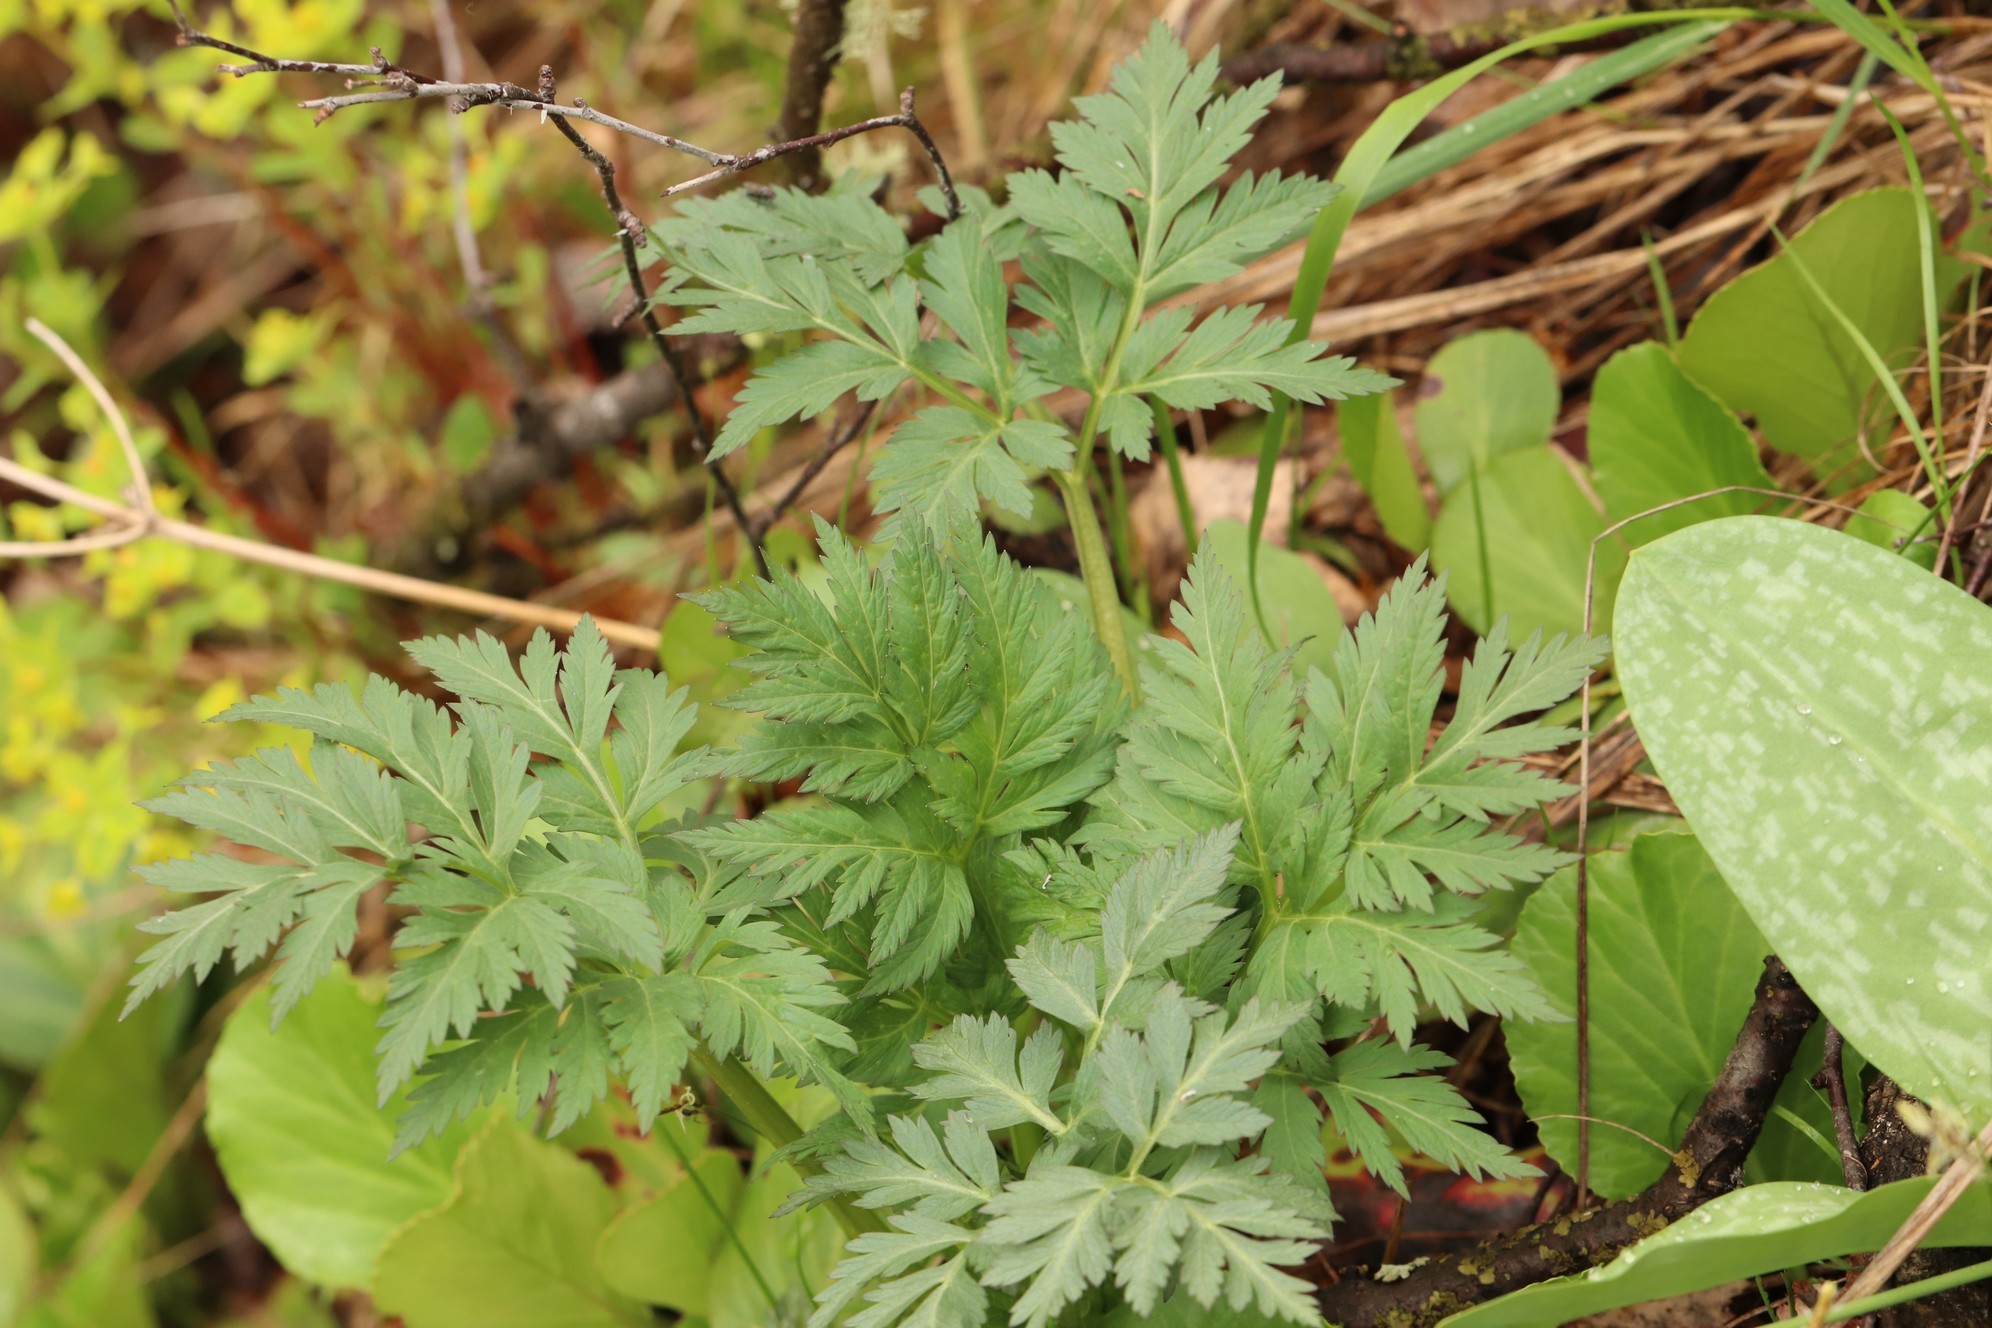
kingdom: Plantae
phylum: Tracheophyta
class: Magnoliopsida
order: Apiales
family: Apiaceae
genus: Anthriscus
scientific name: Anthriscus sylvestris
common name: Cow parsley
